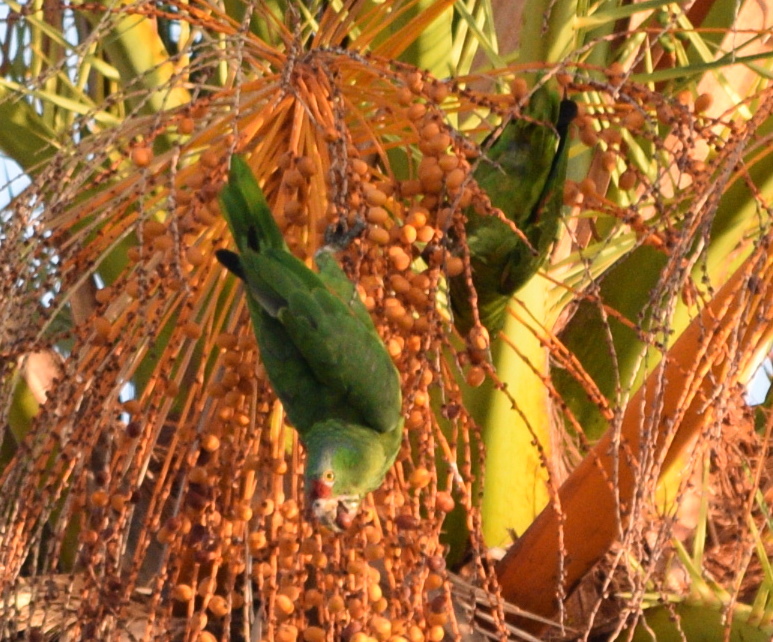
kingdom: Animalia
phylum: Chordata
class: Aves
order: Psittaciformes
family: Psittacidae
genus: Amazona
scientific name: Amazona viridigenalis
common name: Red-crowned amazon
